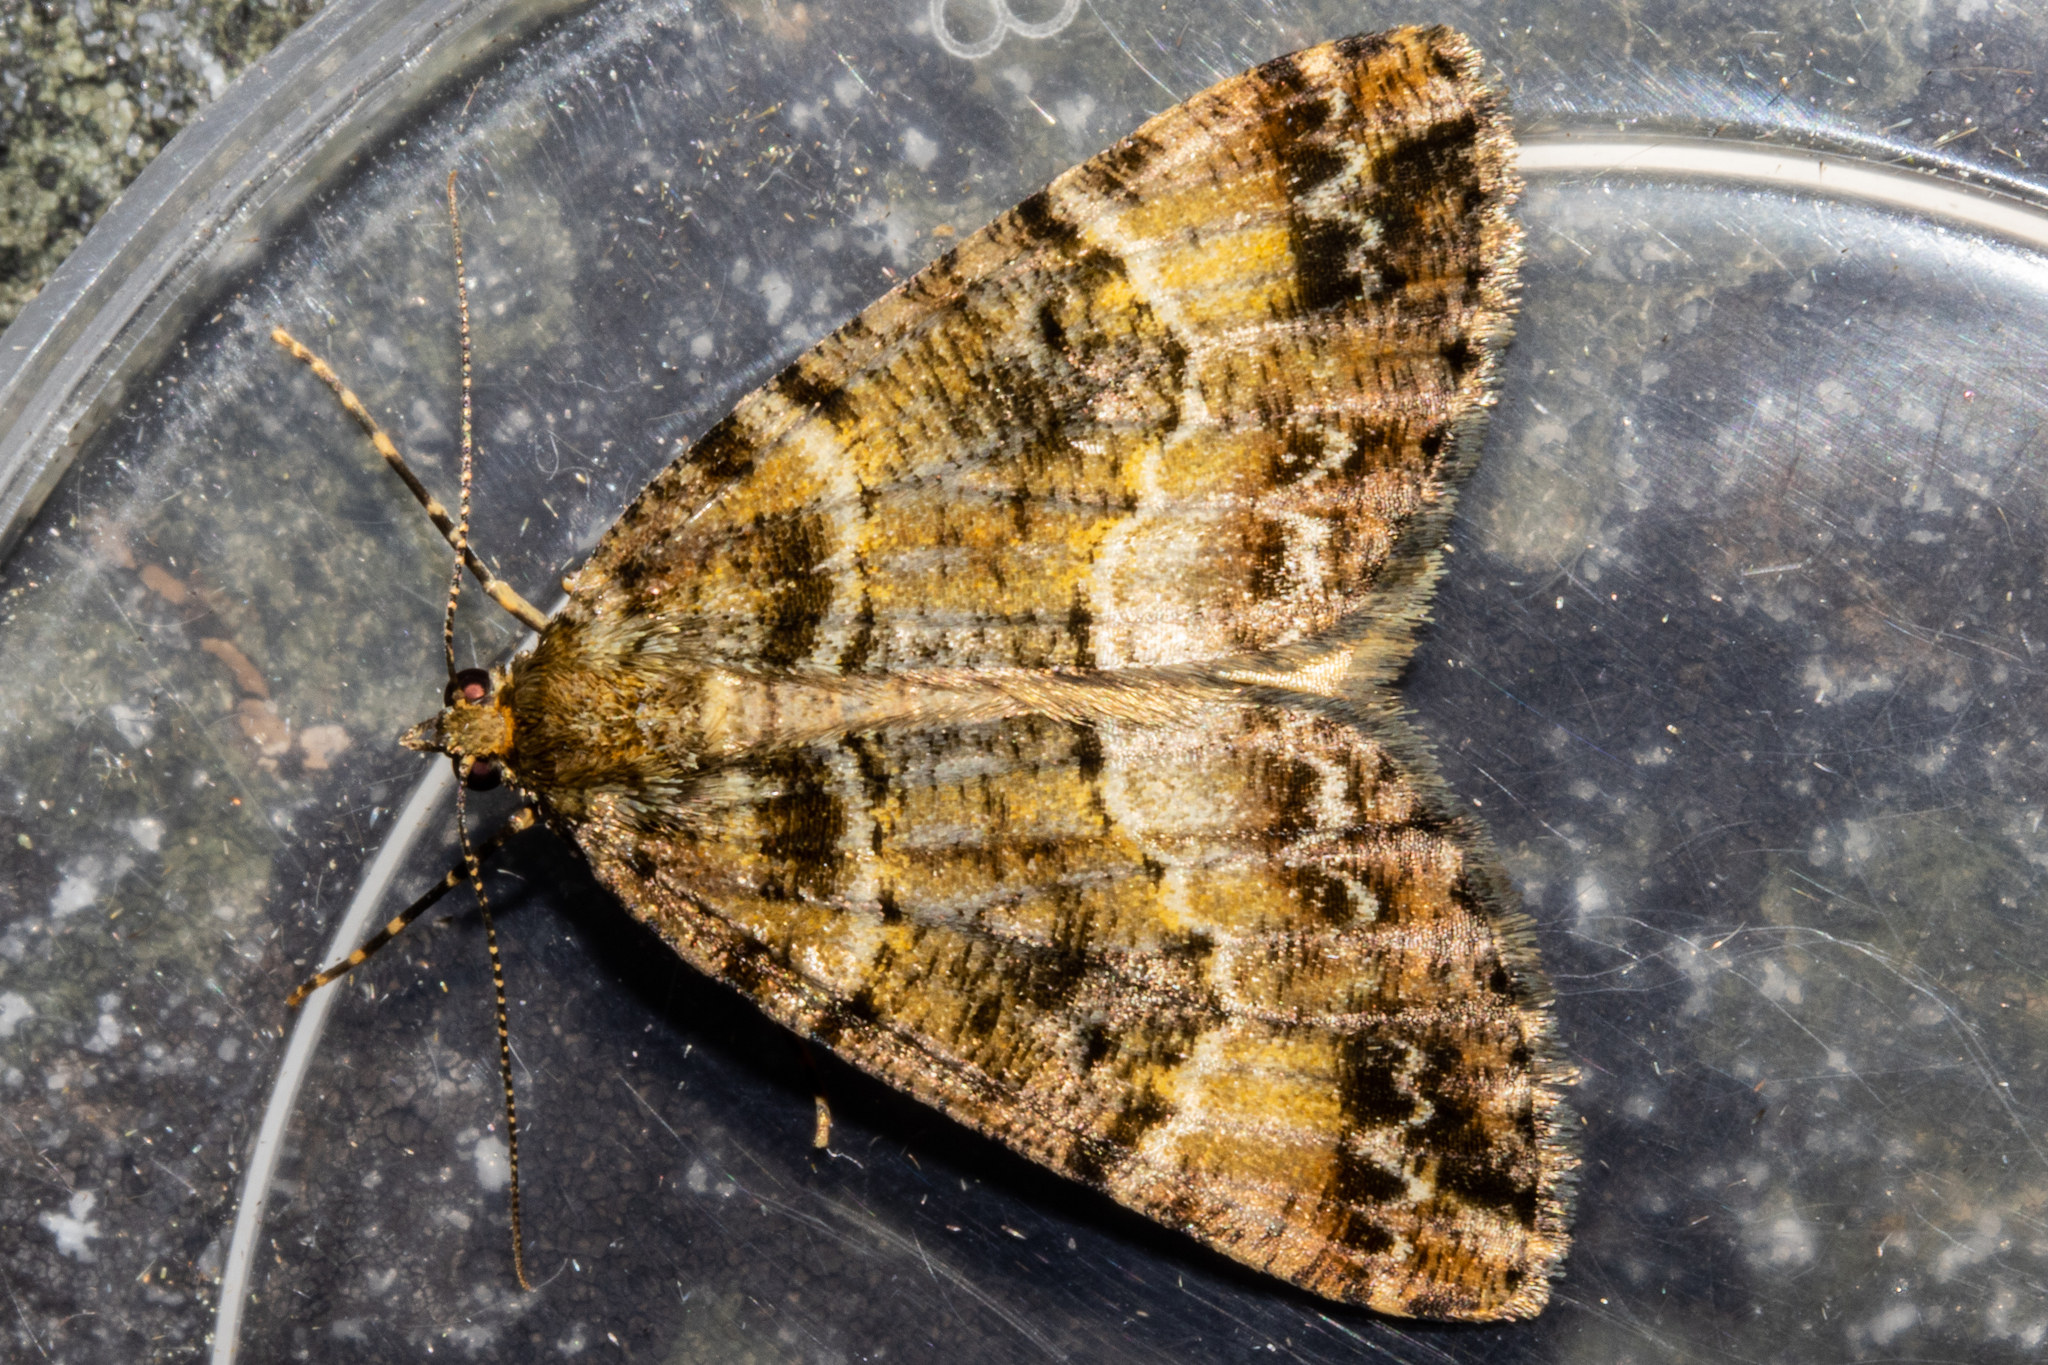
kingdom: Animalia
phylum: Arthropoda
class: Insecta
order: Lepidoptera
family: Geometridae
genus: Pseudocoremia
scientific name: Pseudocoremia productata
